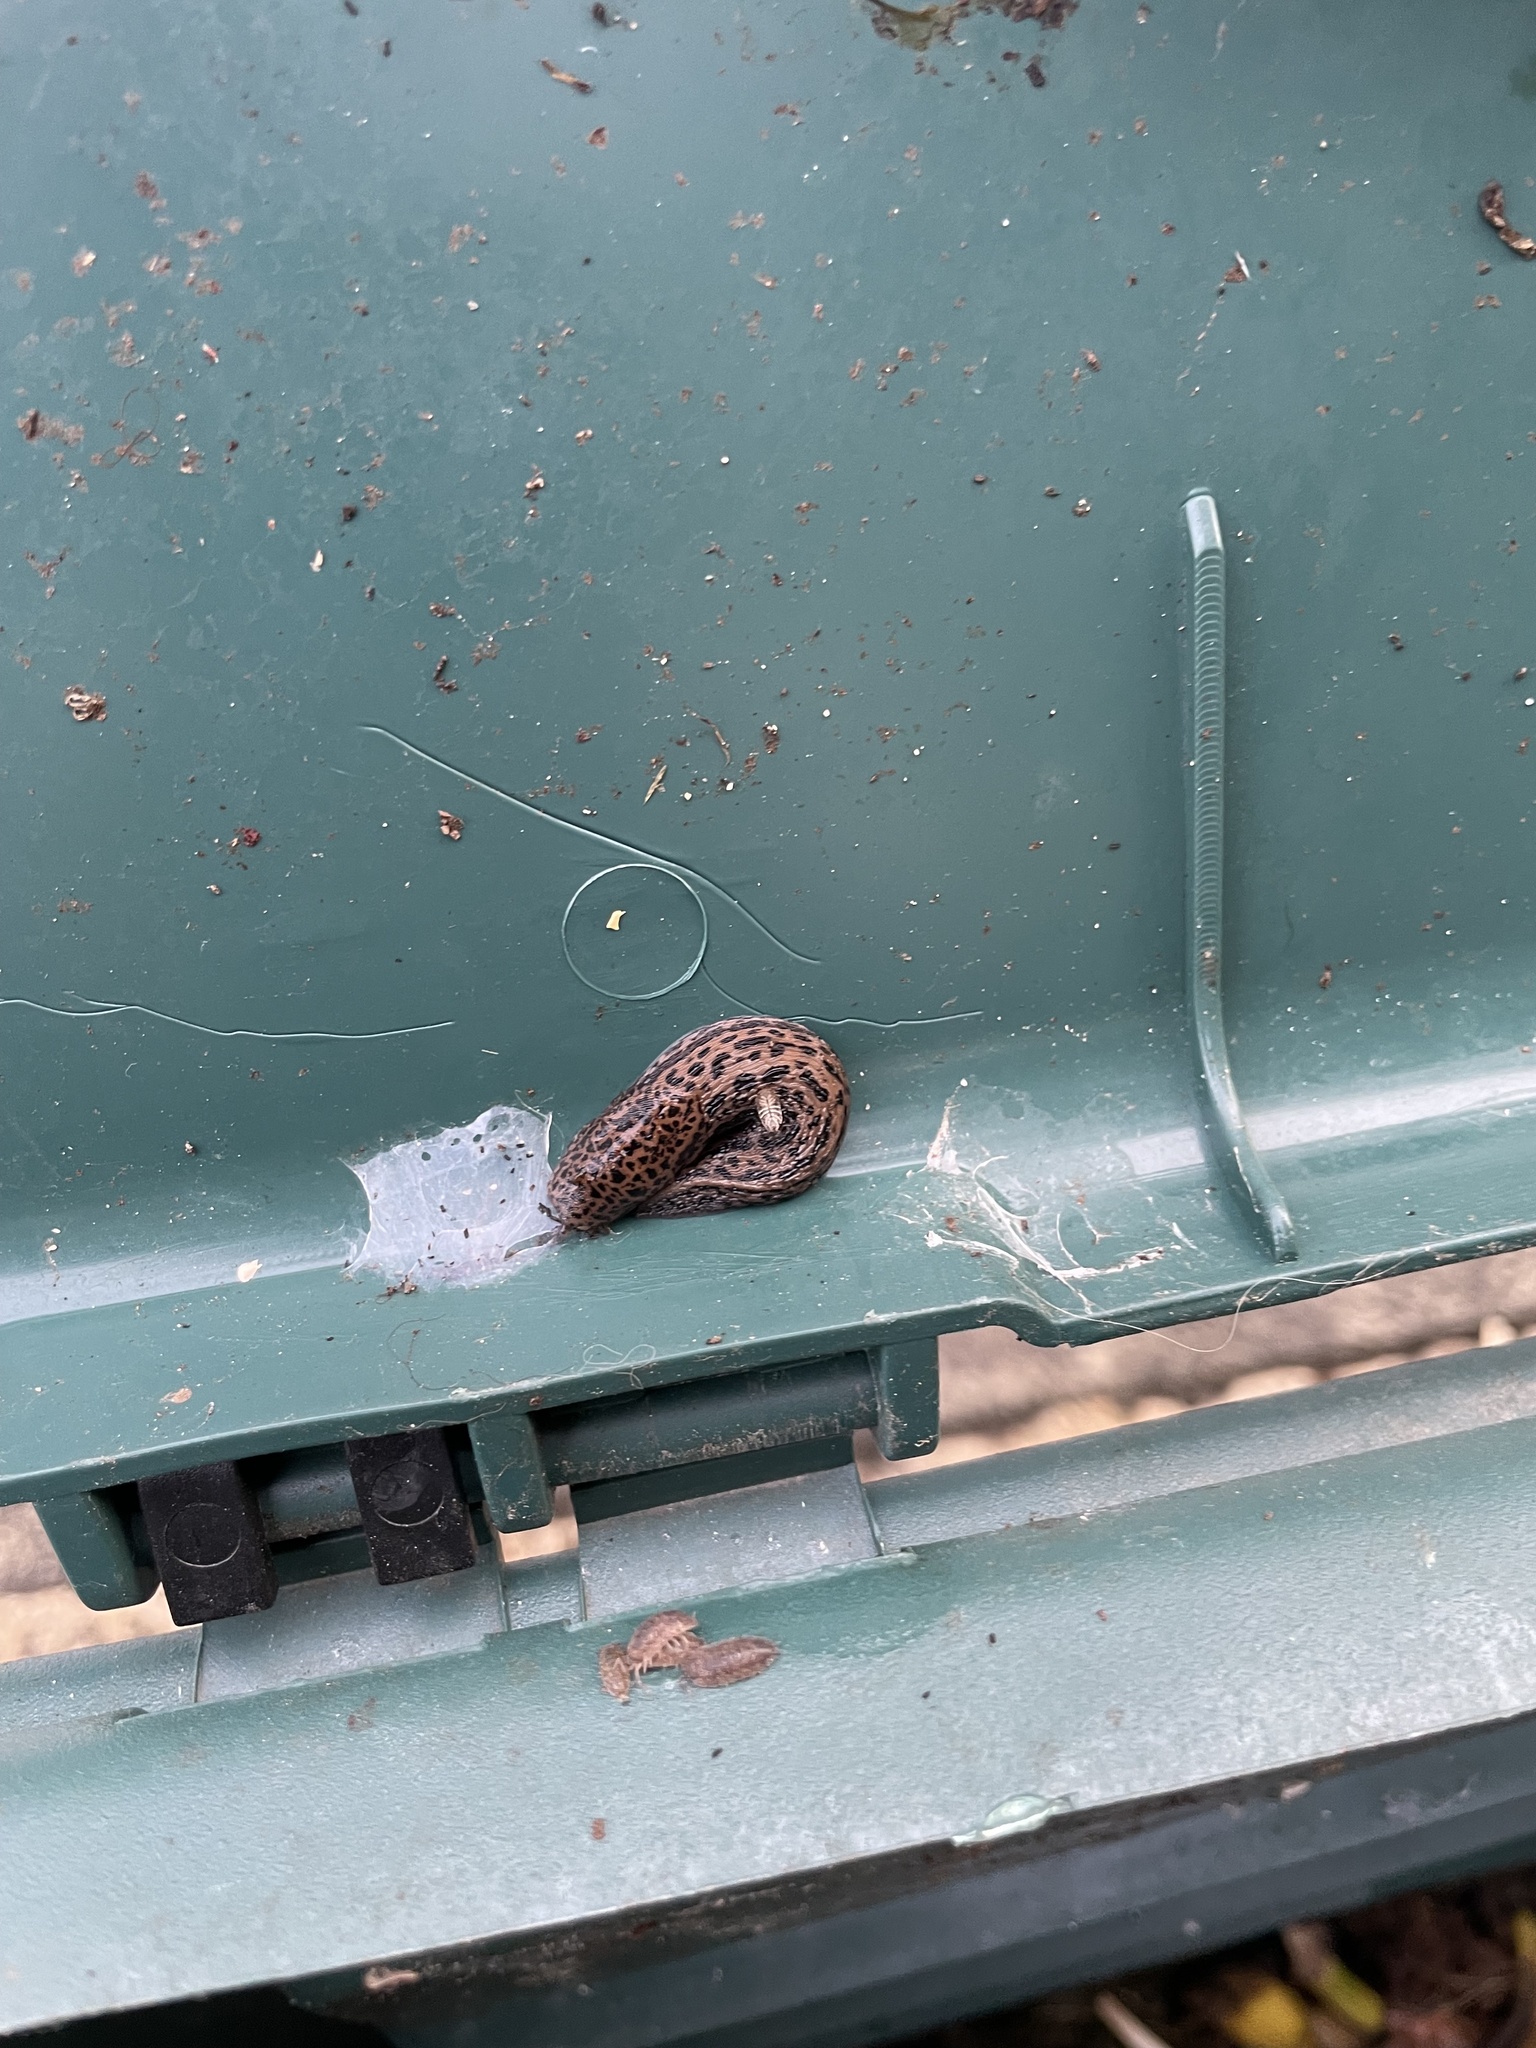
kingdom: Animalia
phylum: Mollusca
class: Gastropoda
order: Stylommatophora
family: Limacidae
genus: Limax
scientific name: Limax maximus
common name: Great grey slug
